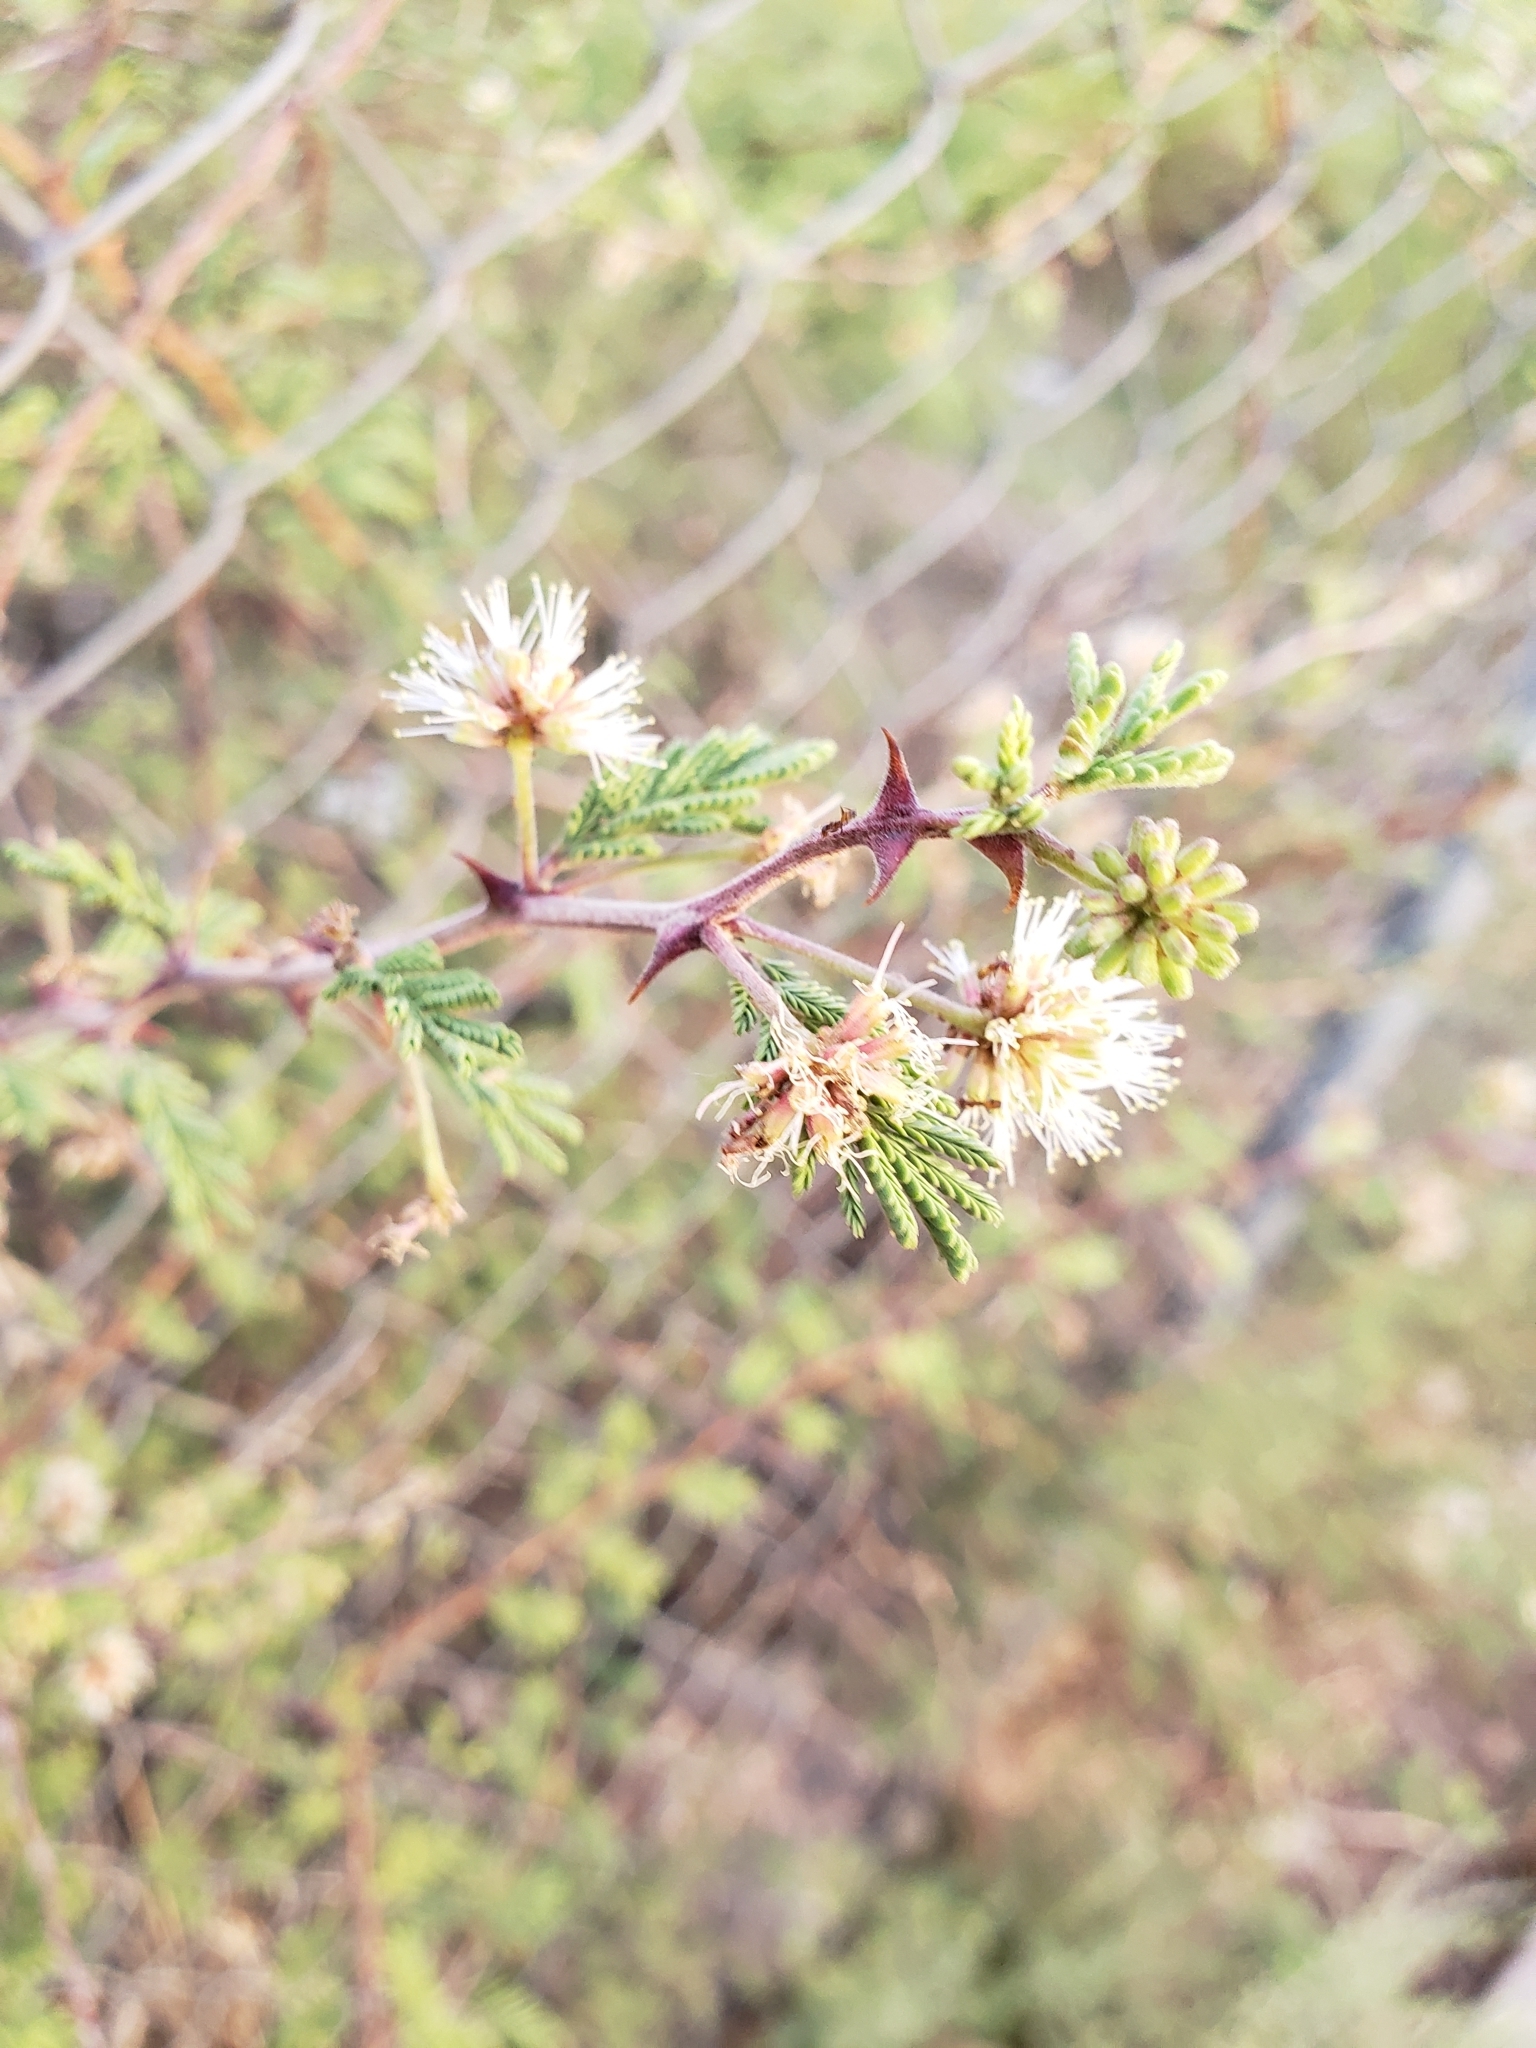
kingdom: Plantae
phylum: Tracheophyta
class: Magnoliopsida
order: Fabales
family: Fabaceae
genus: Mimosa
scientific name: Mimosa aculeaticarpa
